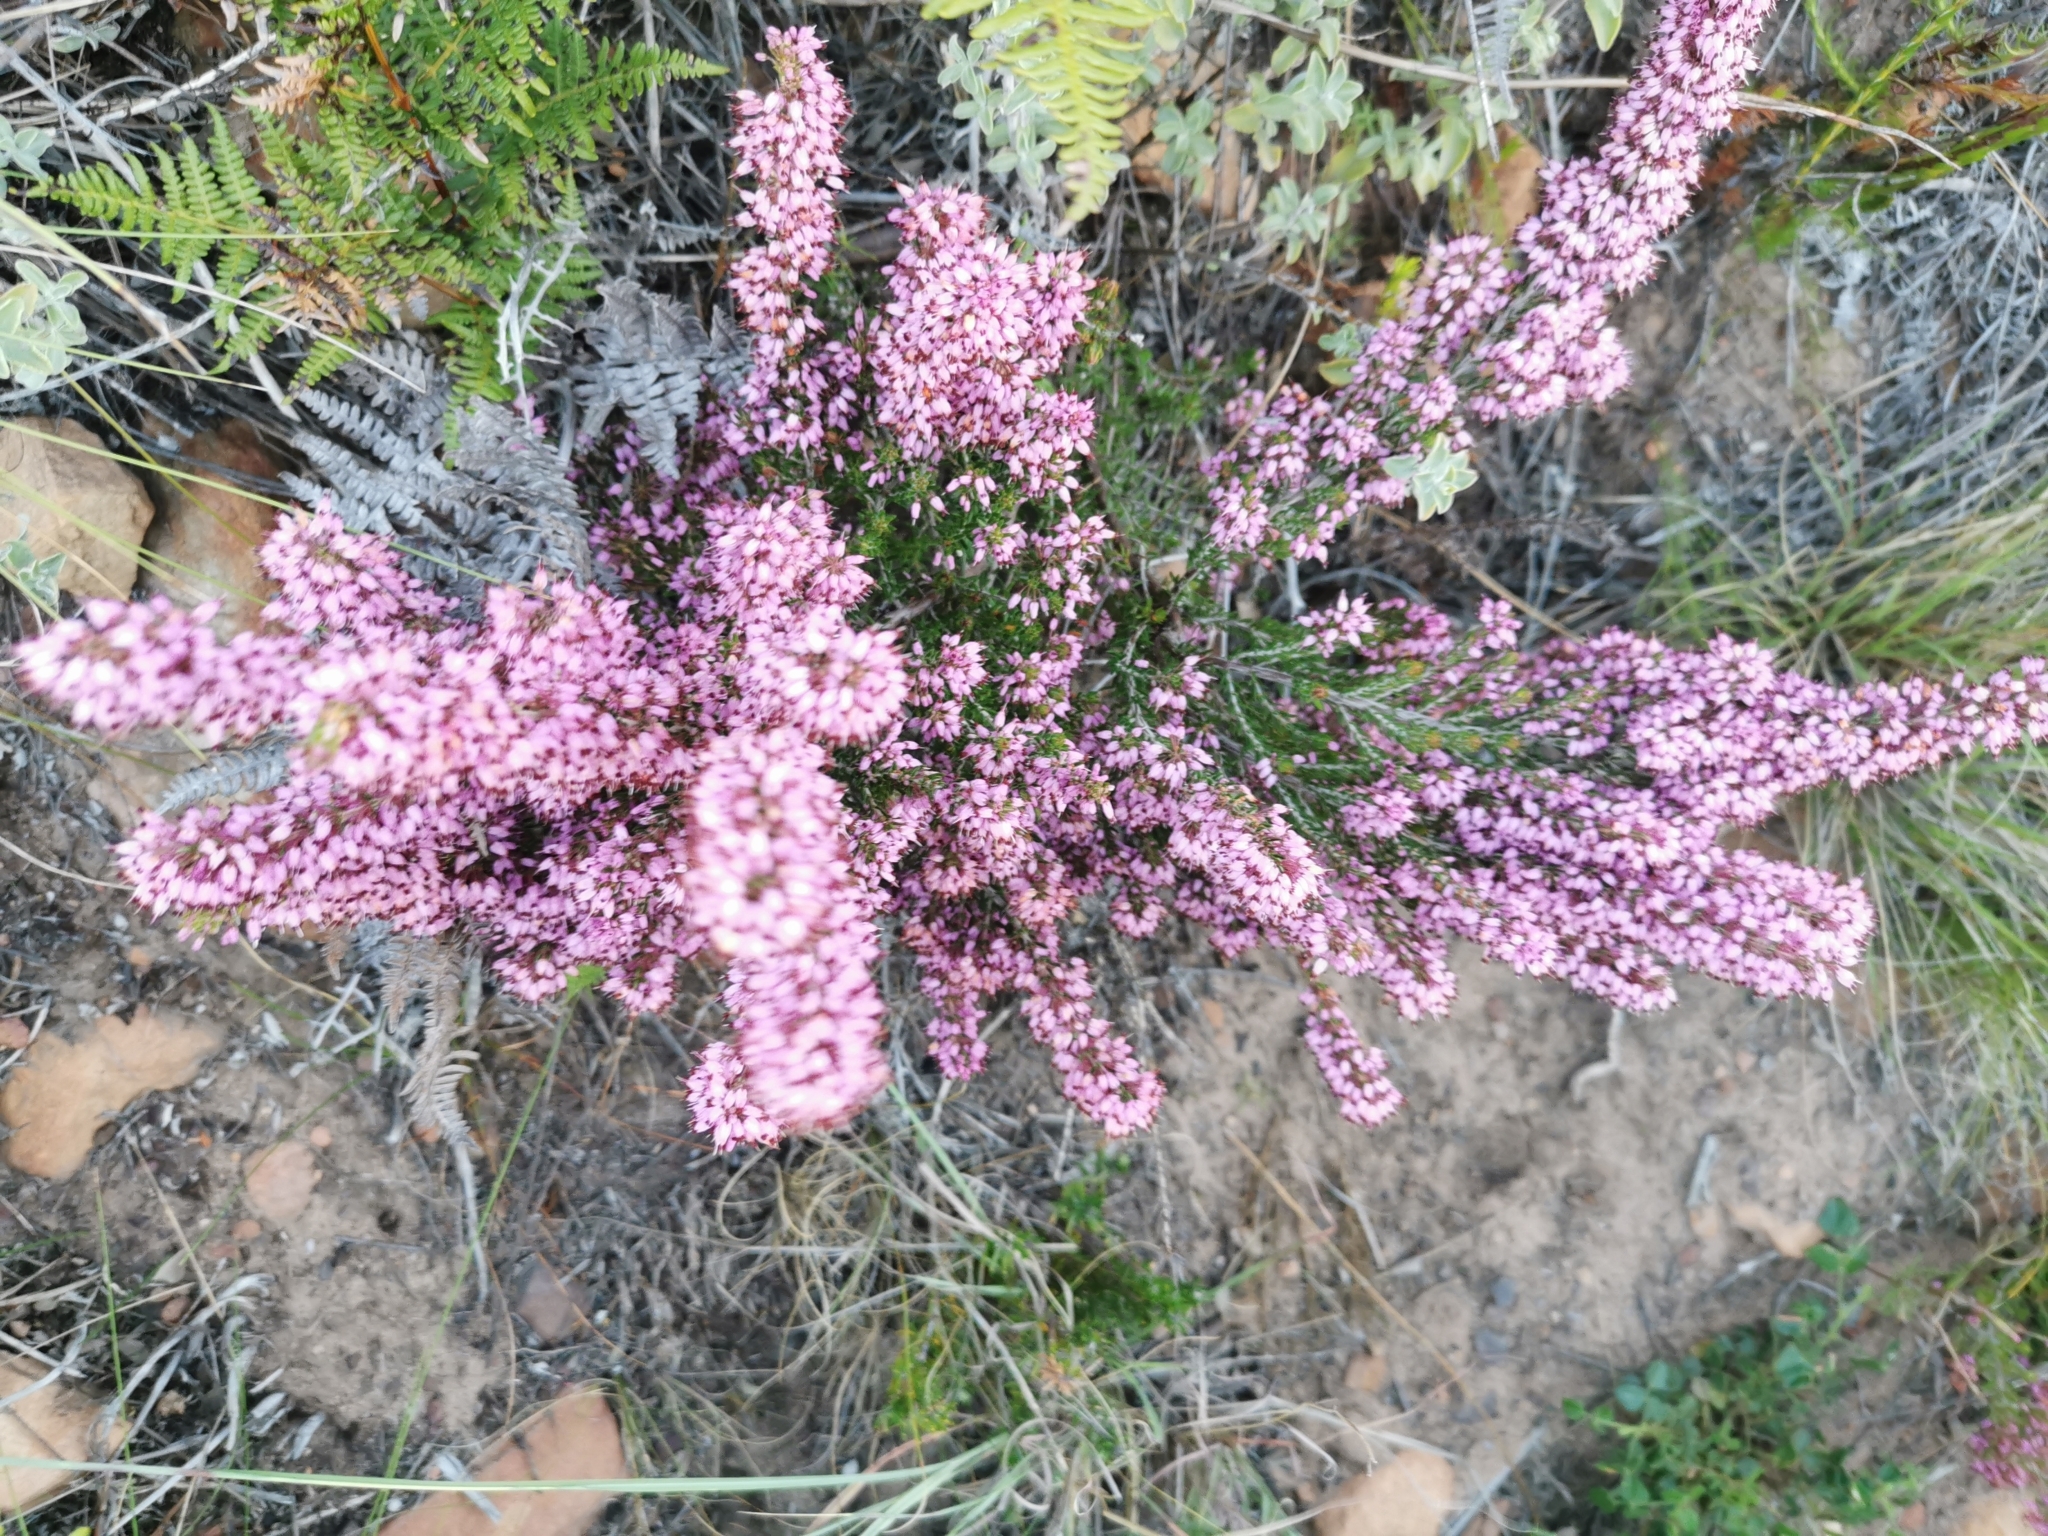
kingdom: Plantae
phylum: Tracheophyta
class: Magnoliopsida
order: Ericales
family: Ericaceae
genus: Erica
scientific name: Erica nudiflora
